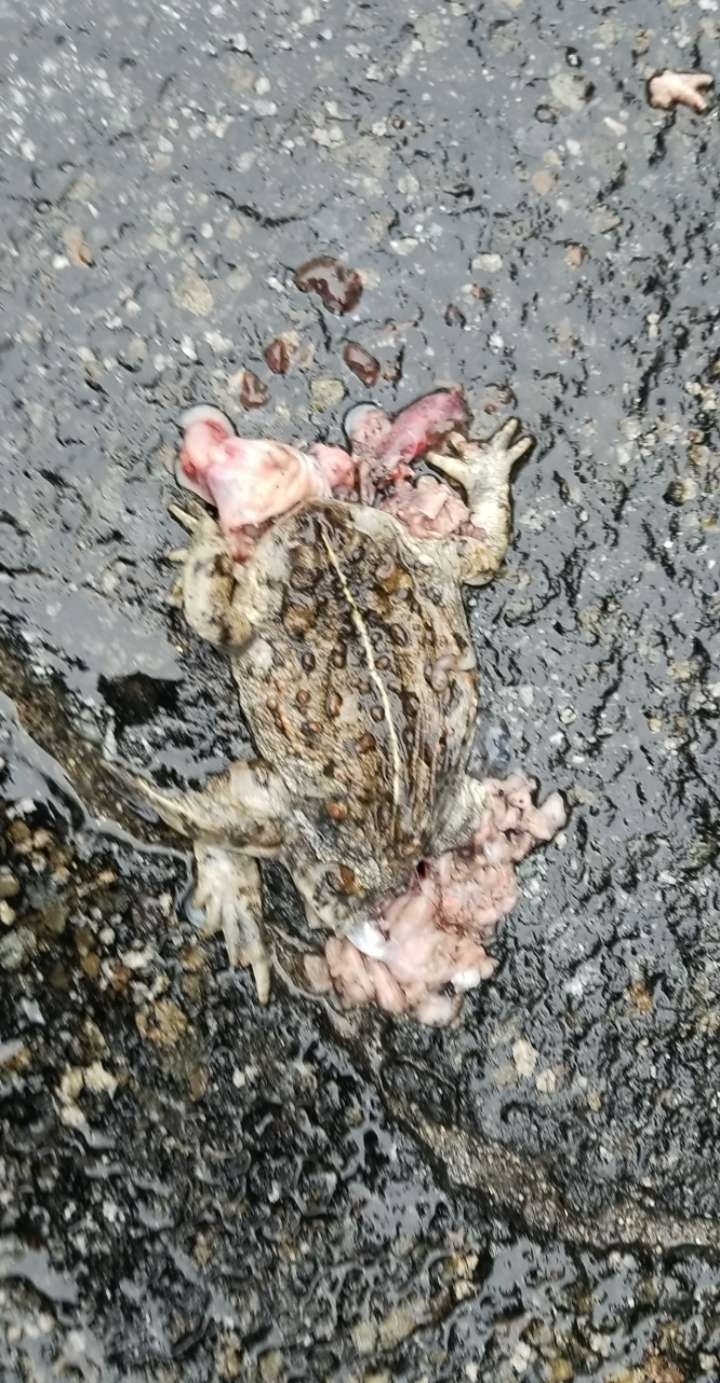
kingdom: Animalia
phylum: Chordata
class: Amphibia
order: Anura
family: Bufonidae
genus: Anaxyrus
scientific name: Anaxyrus boreas
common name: Western toad
